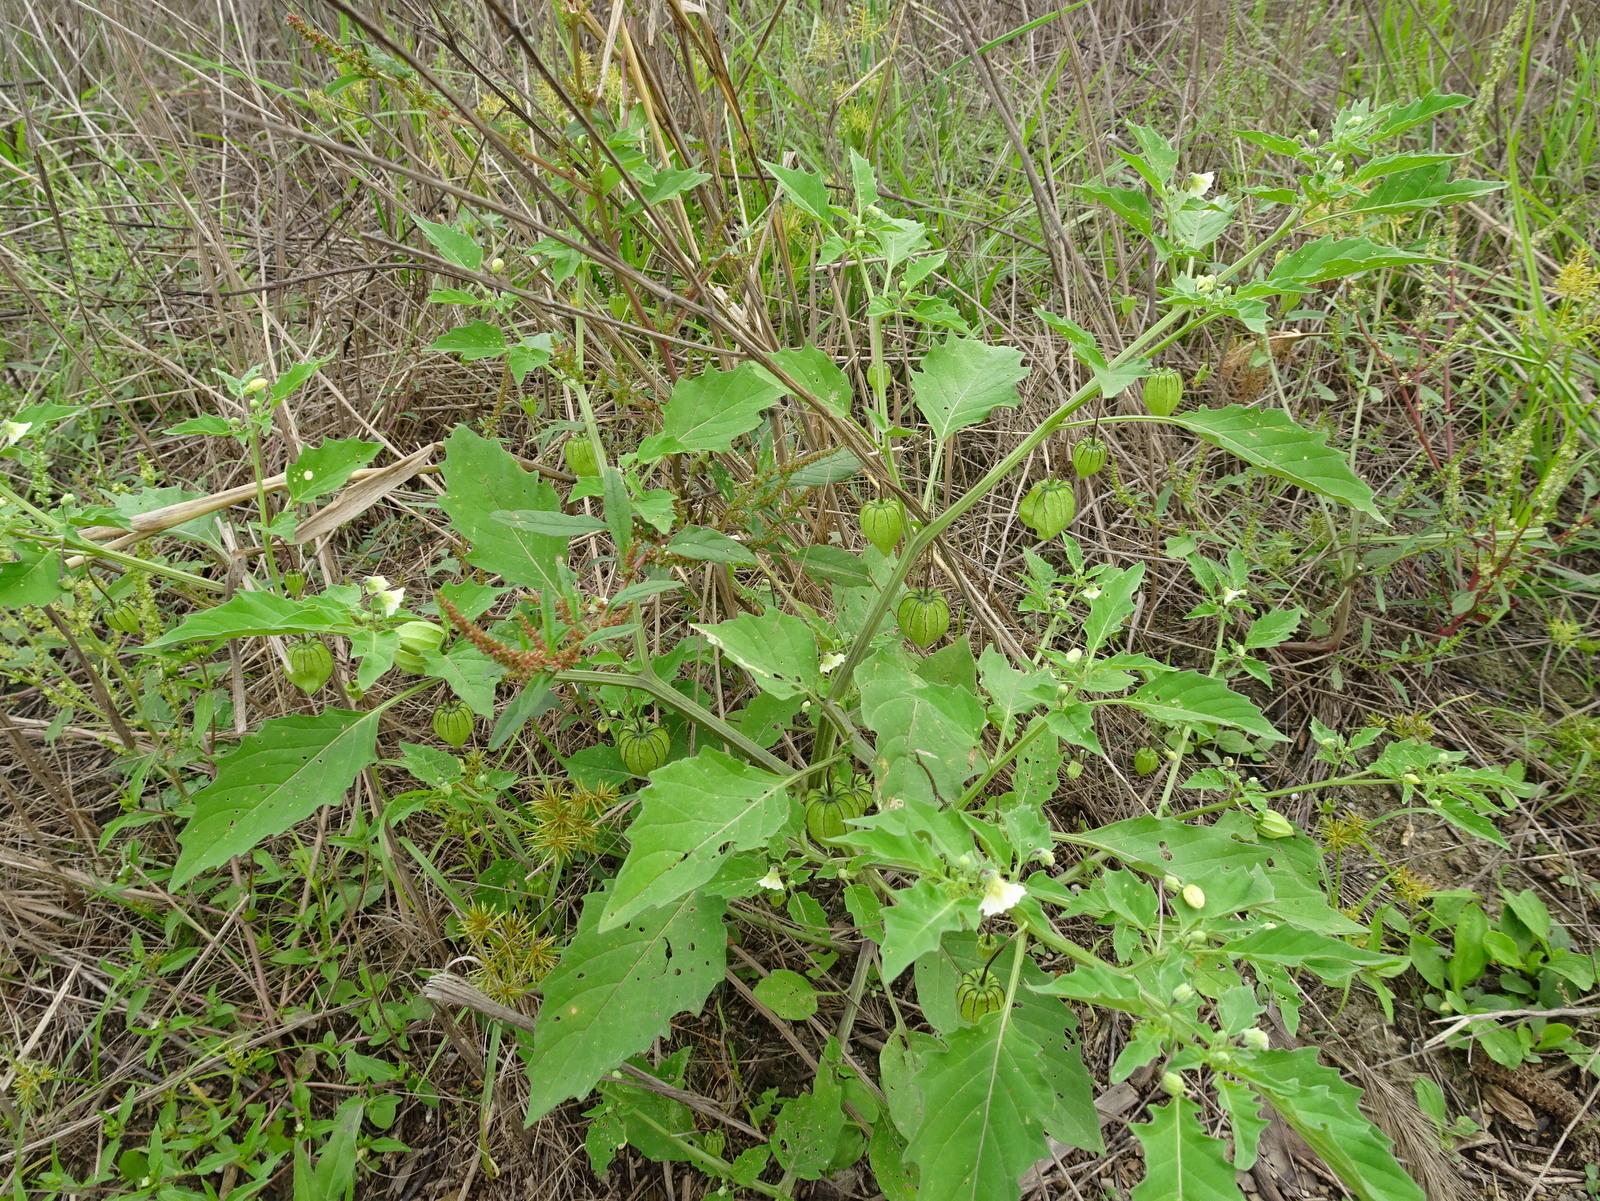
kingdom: Plantae
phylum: Tracheophyta
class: Magnoliopsida
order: Solanales
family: Solanaceae
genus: Physalis
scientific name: Physalis angulata
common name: Angular winter-cherry
